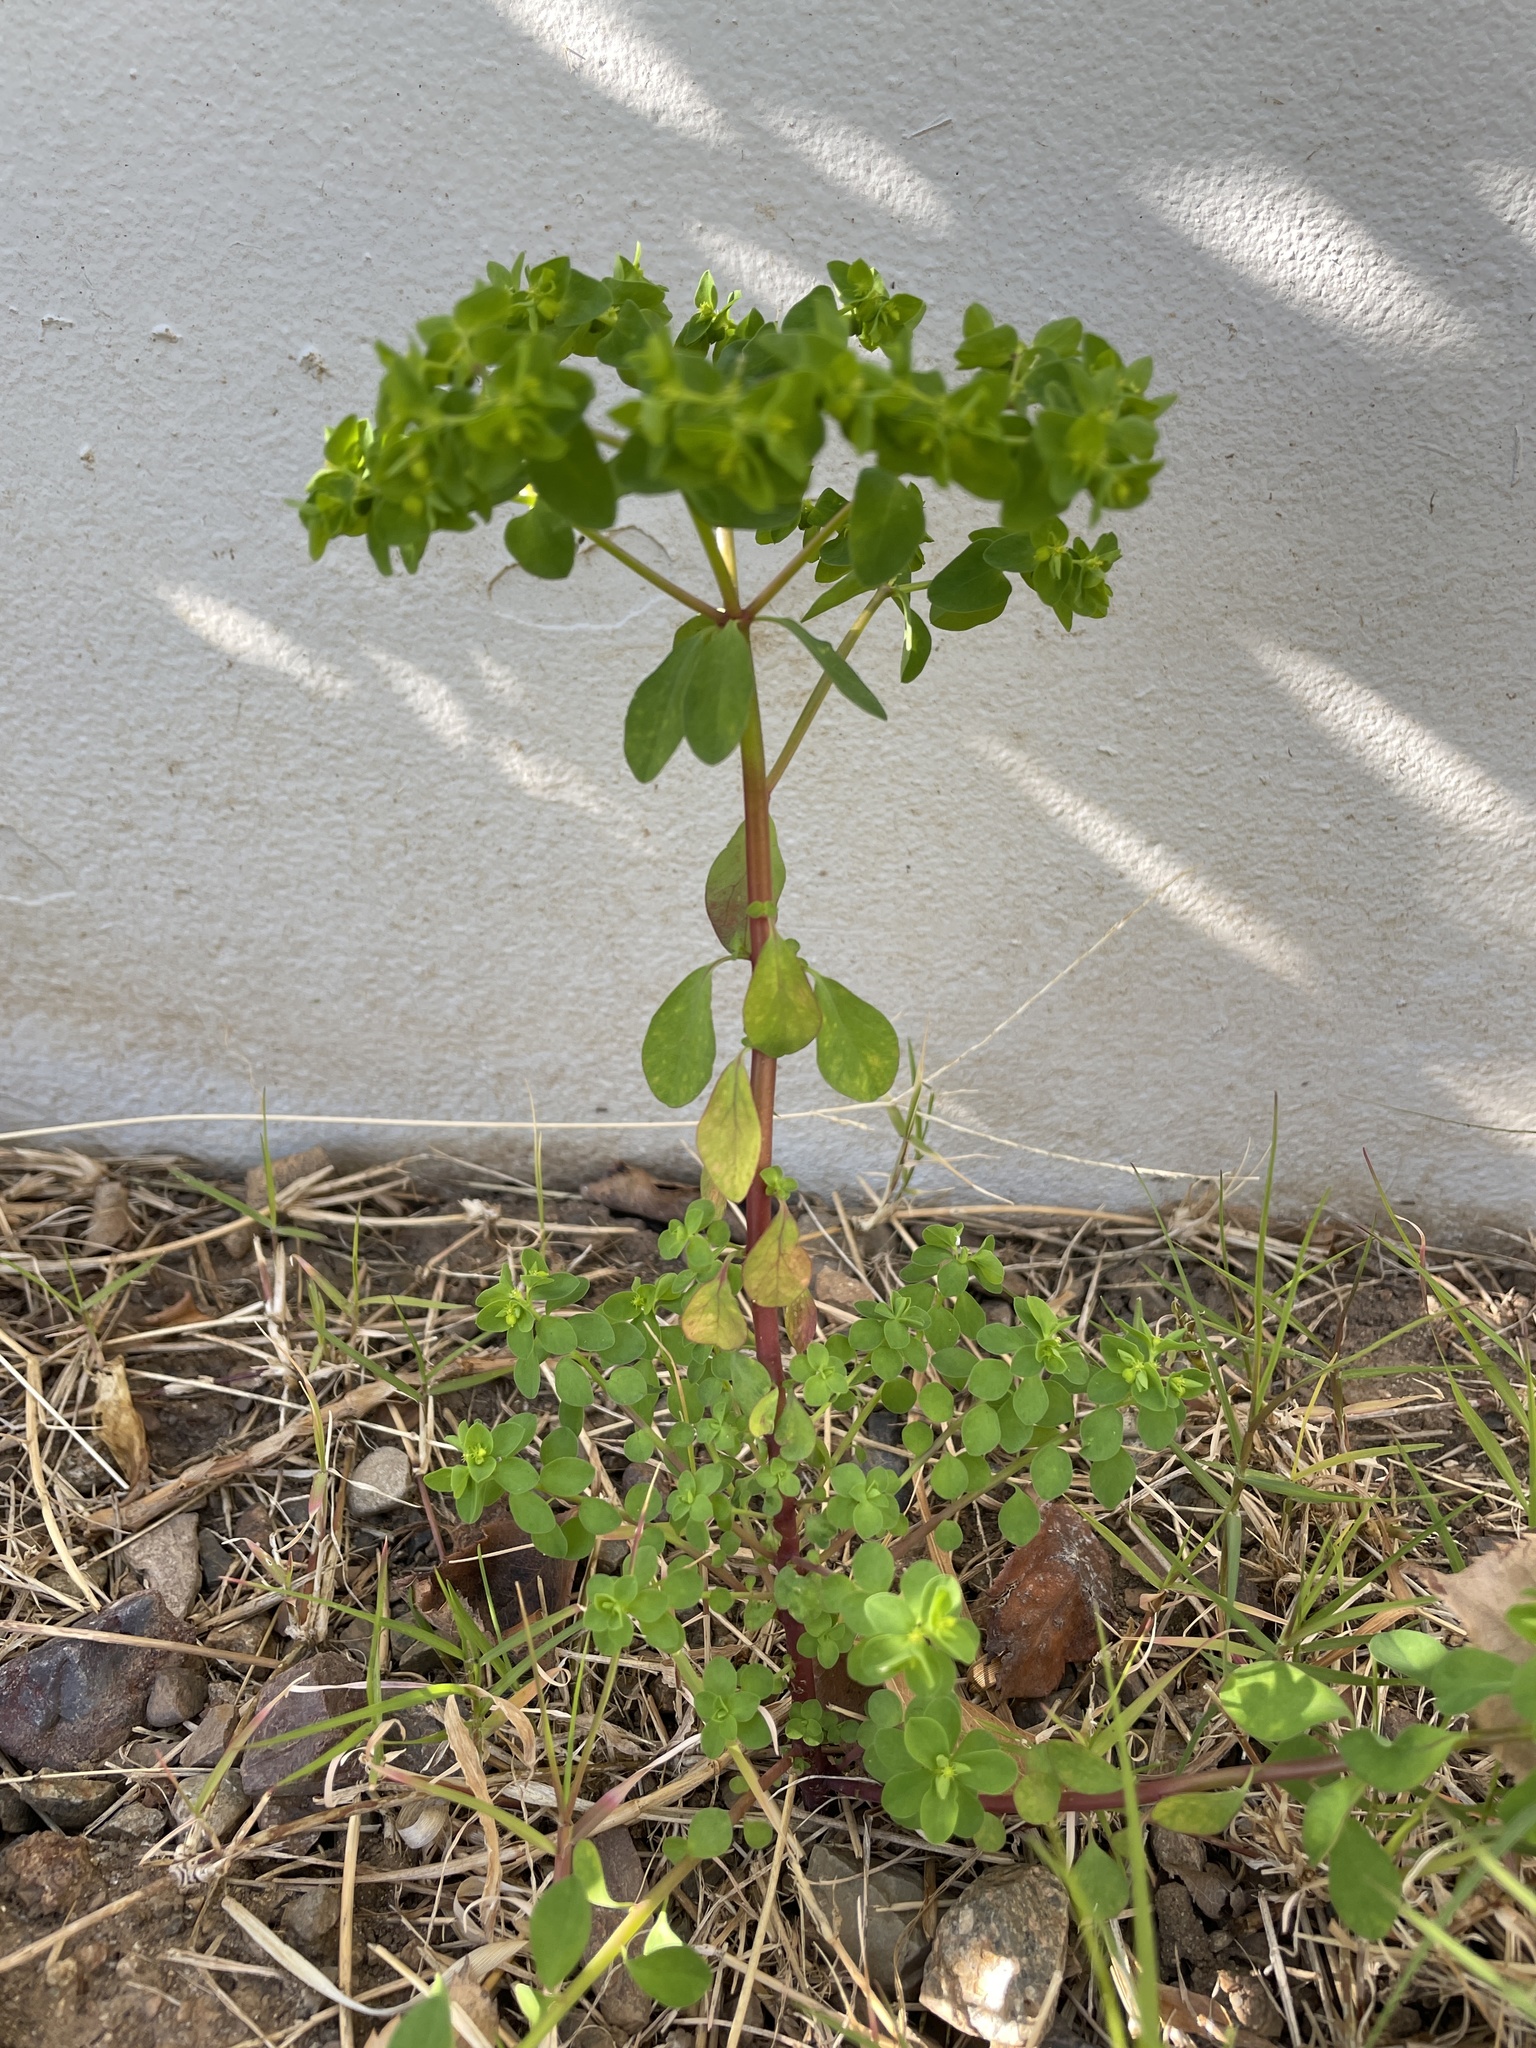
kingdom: Plantae
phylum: Tracheophyta
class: Magnoliopsida
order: Malpighiales
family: Euphorbiaceae
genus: Euphorbia
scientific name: Euphorbia peplus
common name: Petty spurge
